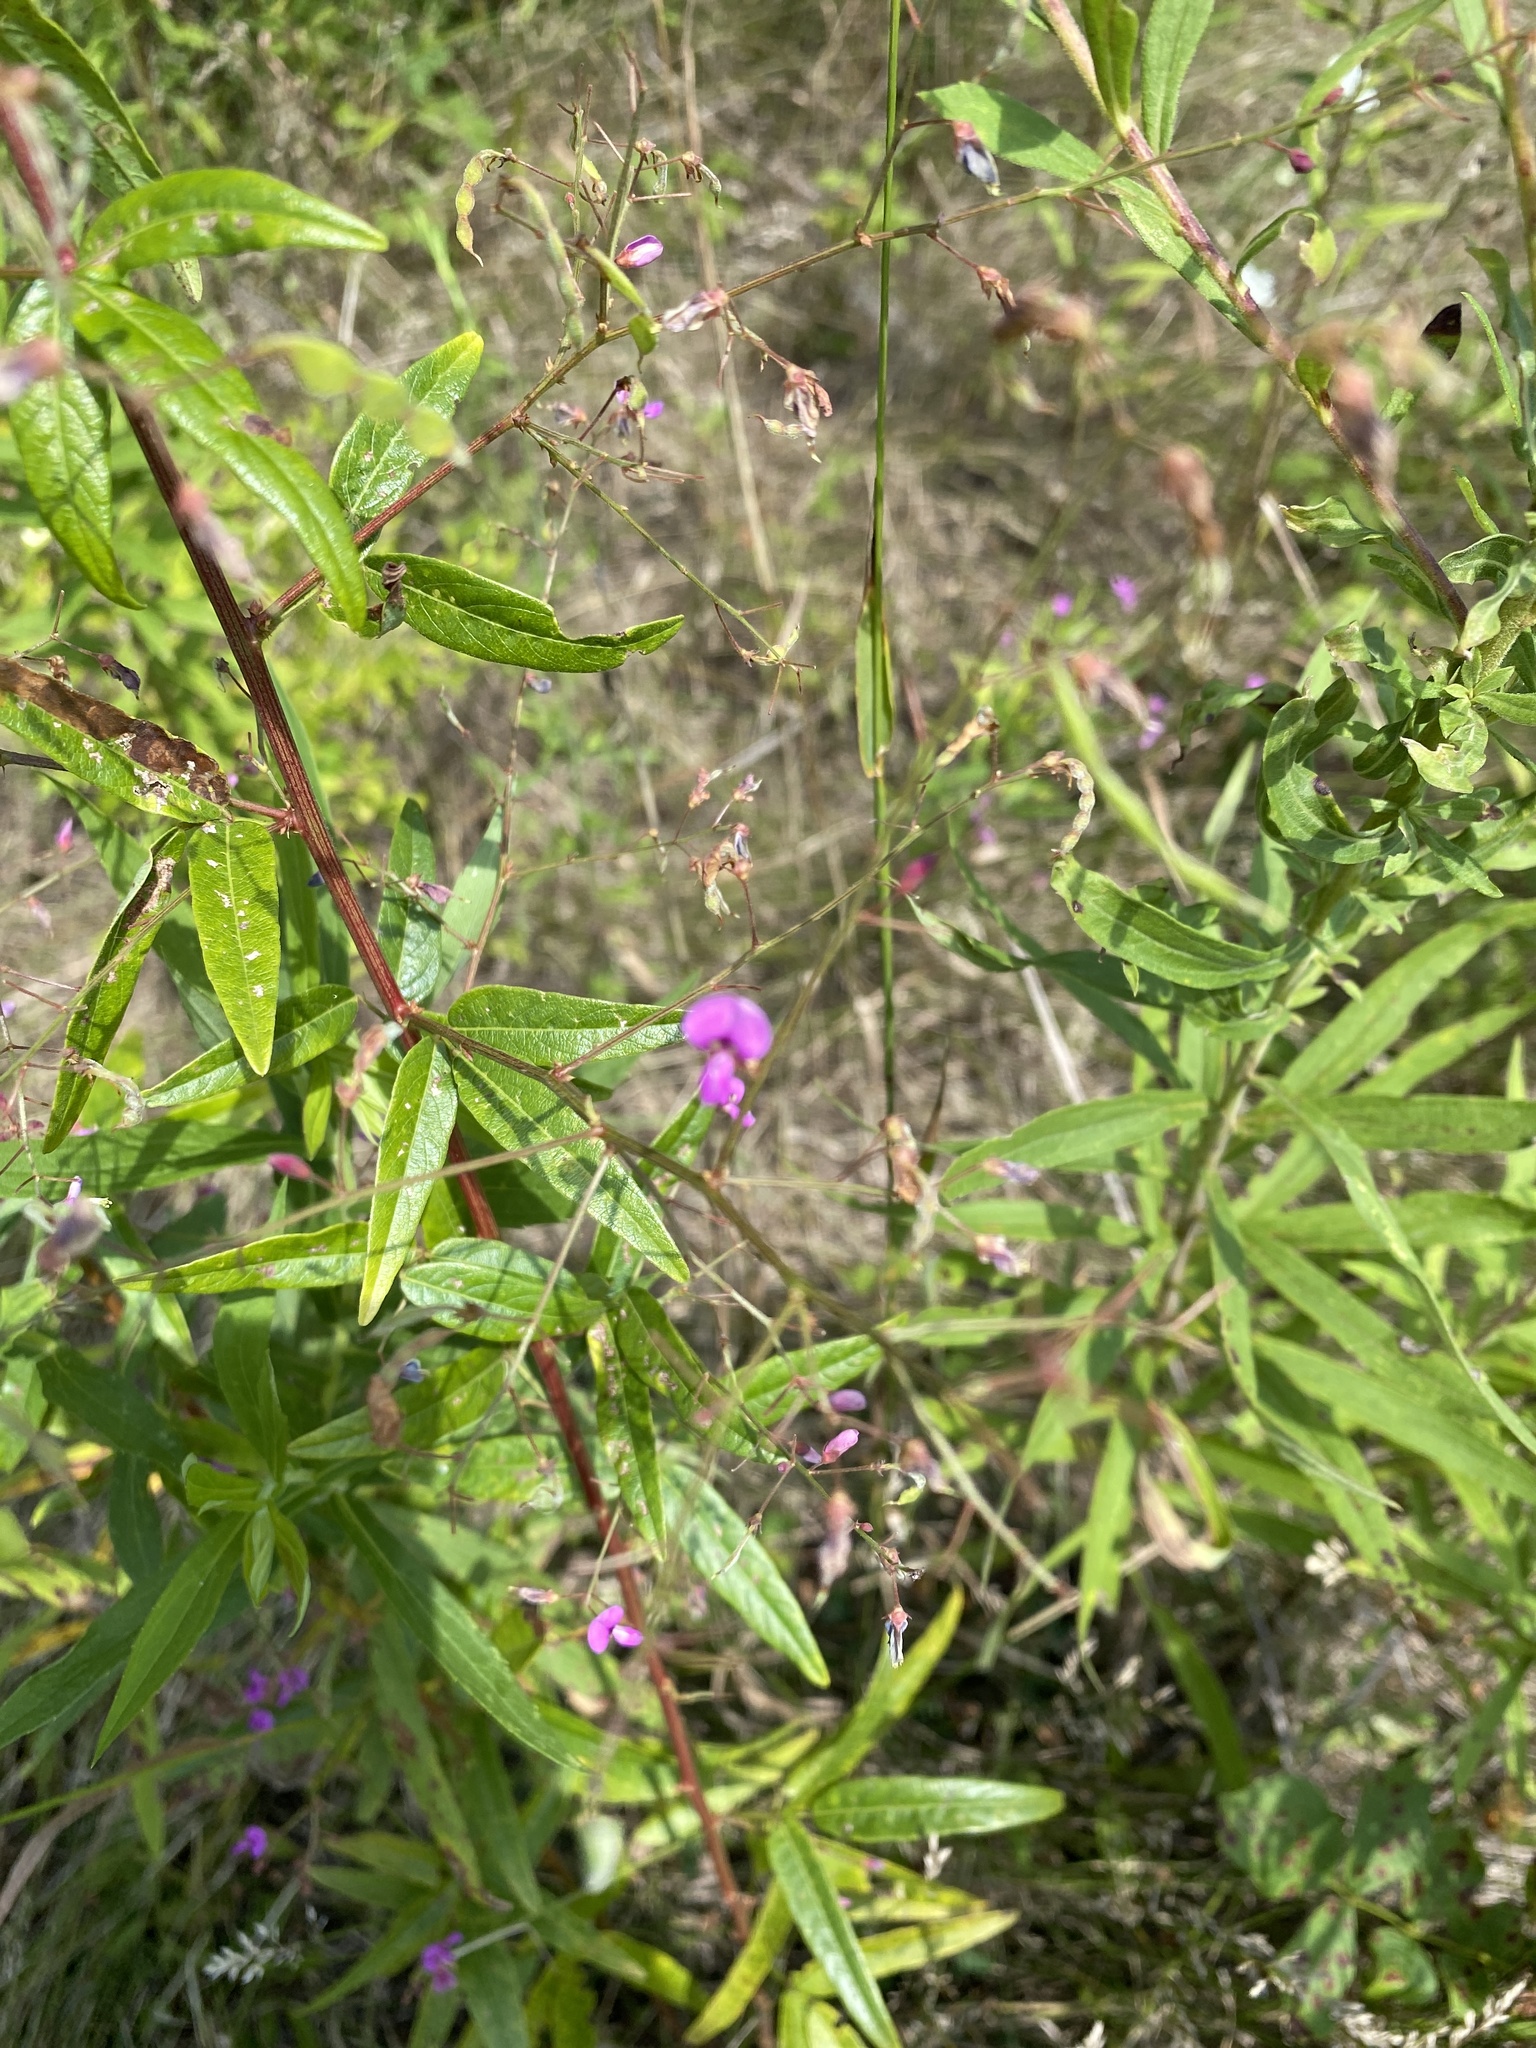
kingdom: Plantae
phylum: Tracheophyta
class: Magnoliopsida
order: Fabales
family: Fabaceae
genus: Desmodium
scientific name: Desmodium paniculatum
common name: Panicled tick-clover
